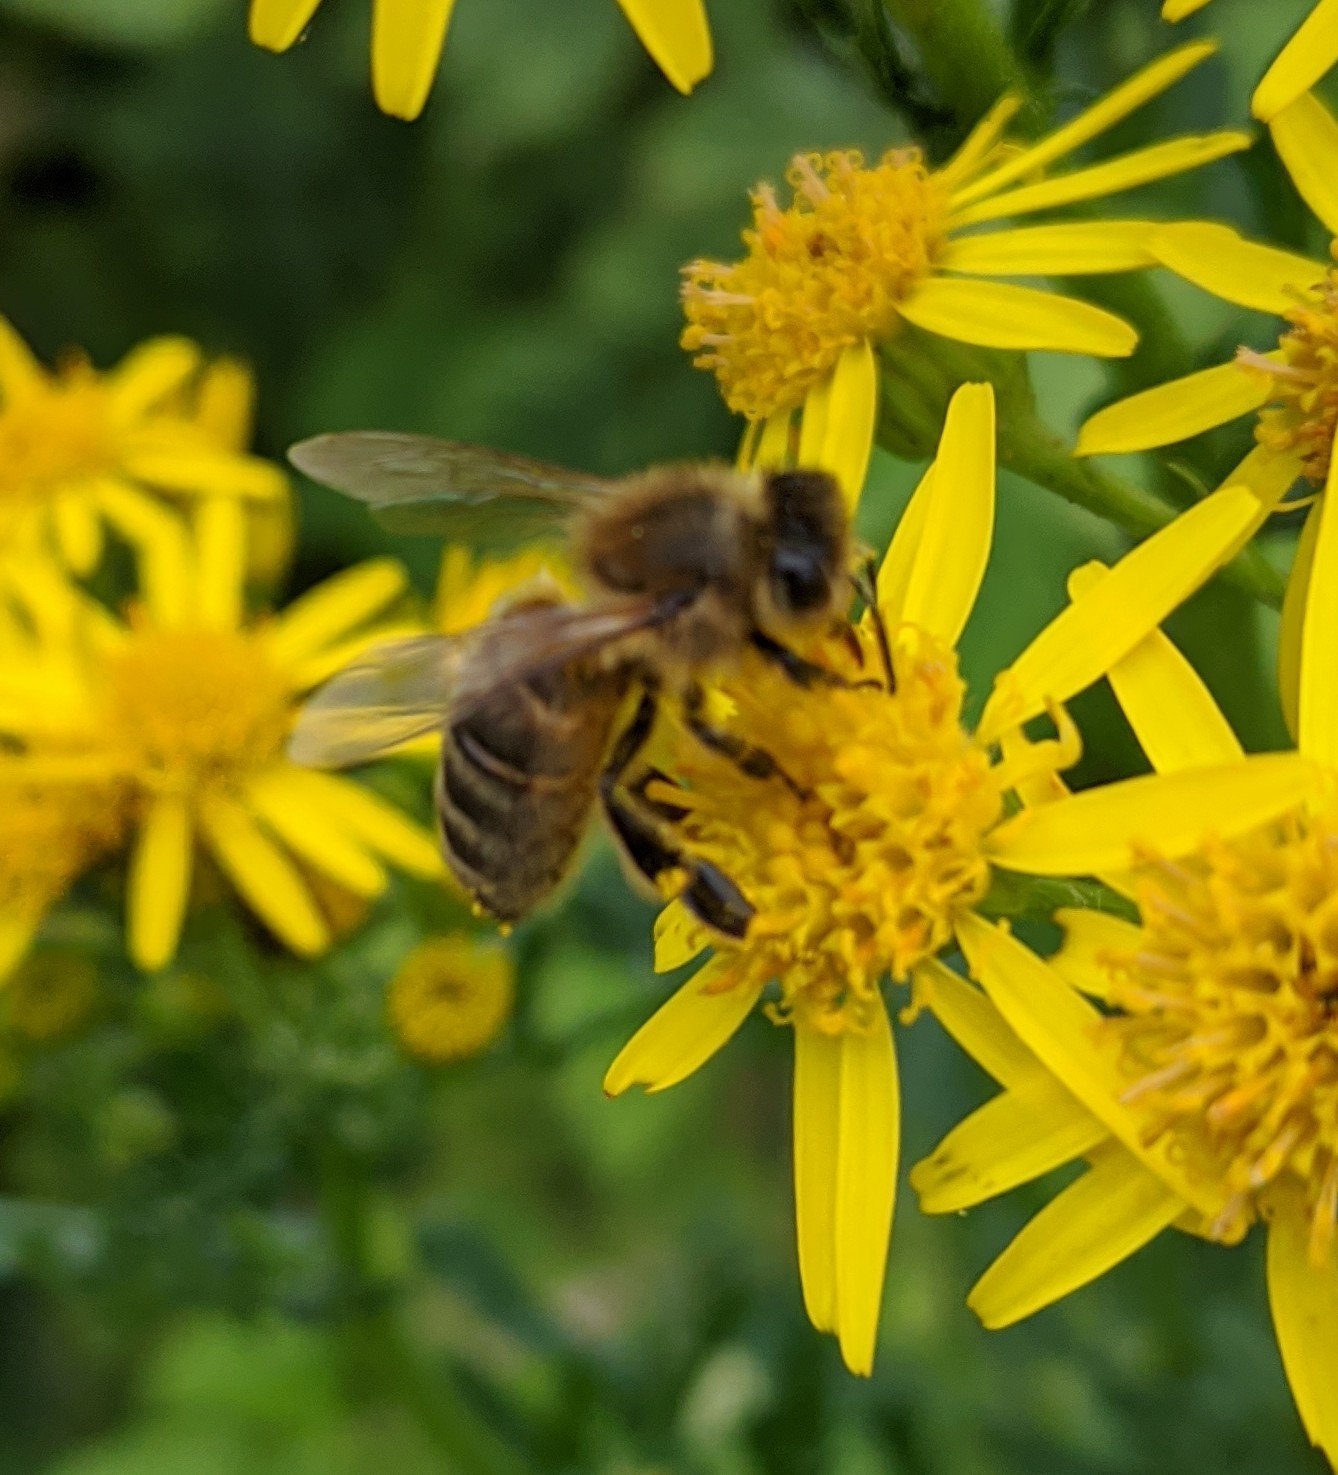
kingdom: Animalia
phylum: Arthropoda
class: Insecta
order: Hymenoptera
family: Apidae
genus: Apis
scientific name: Apis mellifera
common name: Honey bee
